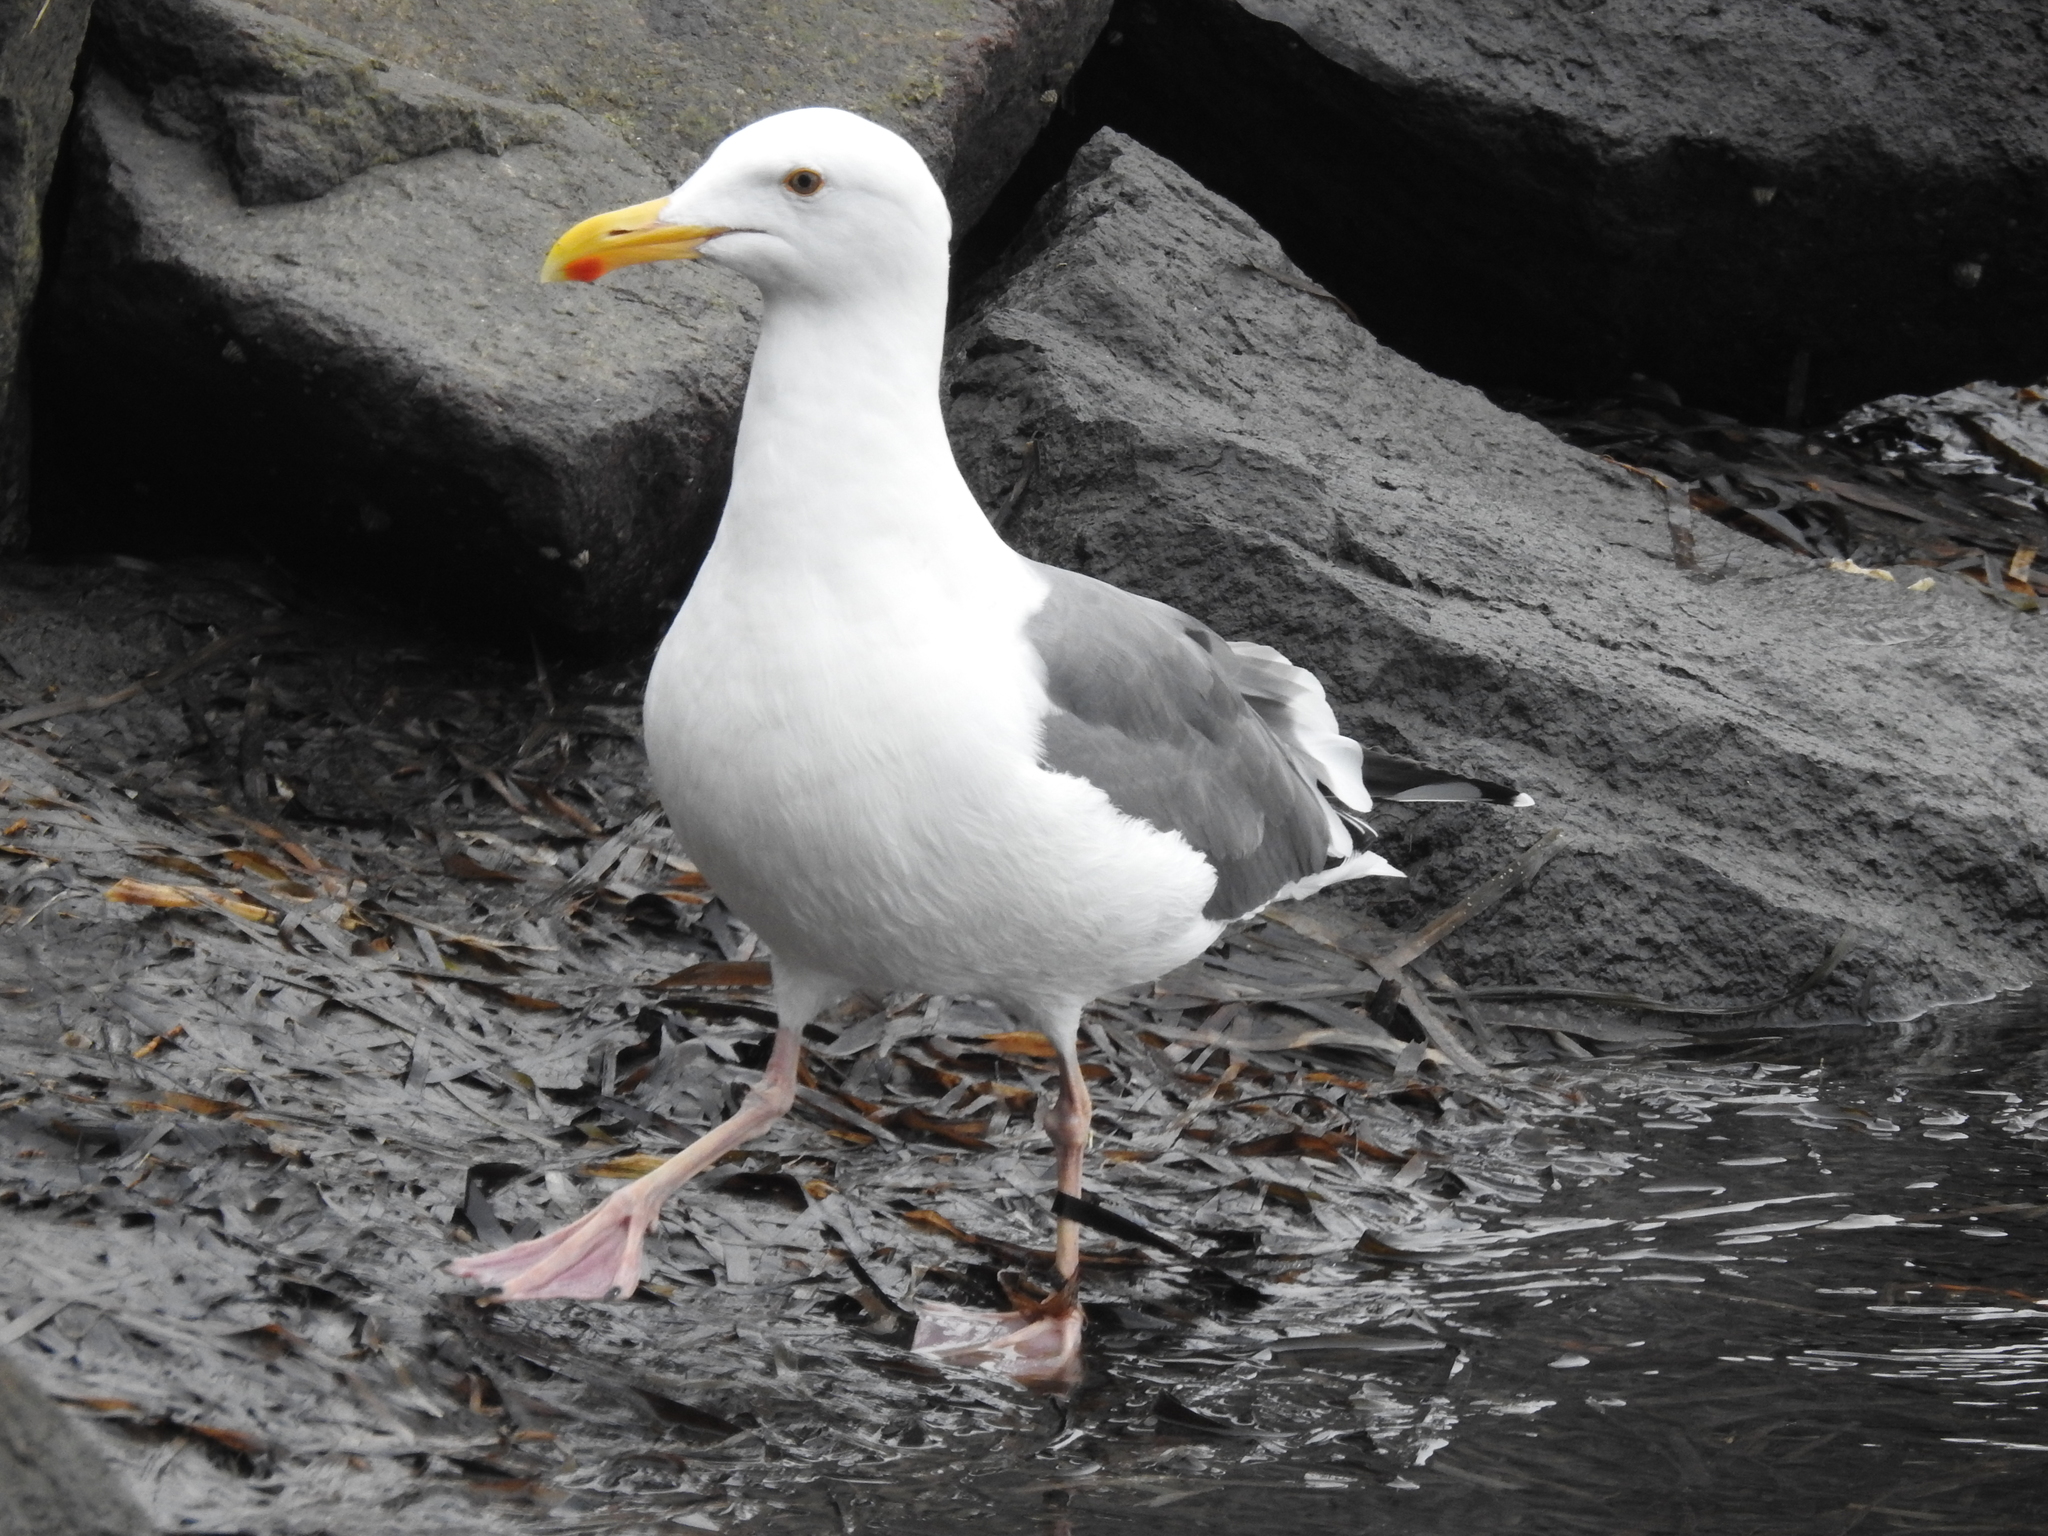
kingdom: Animalia
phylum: Chordata
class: Aves
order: Charadriiformes
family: Laridae
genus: Larus
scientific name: Larus occidentalis
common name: Western gull
